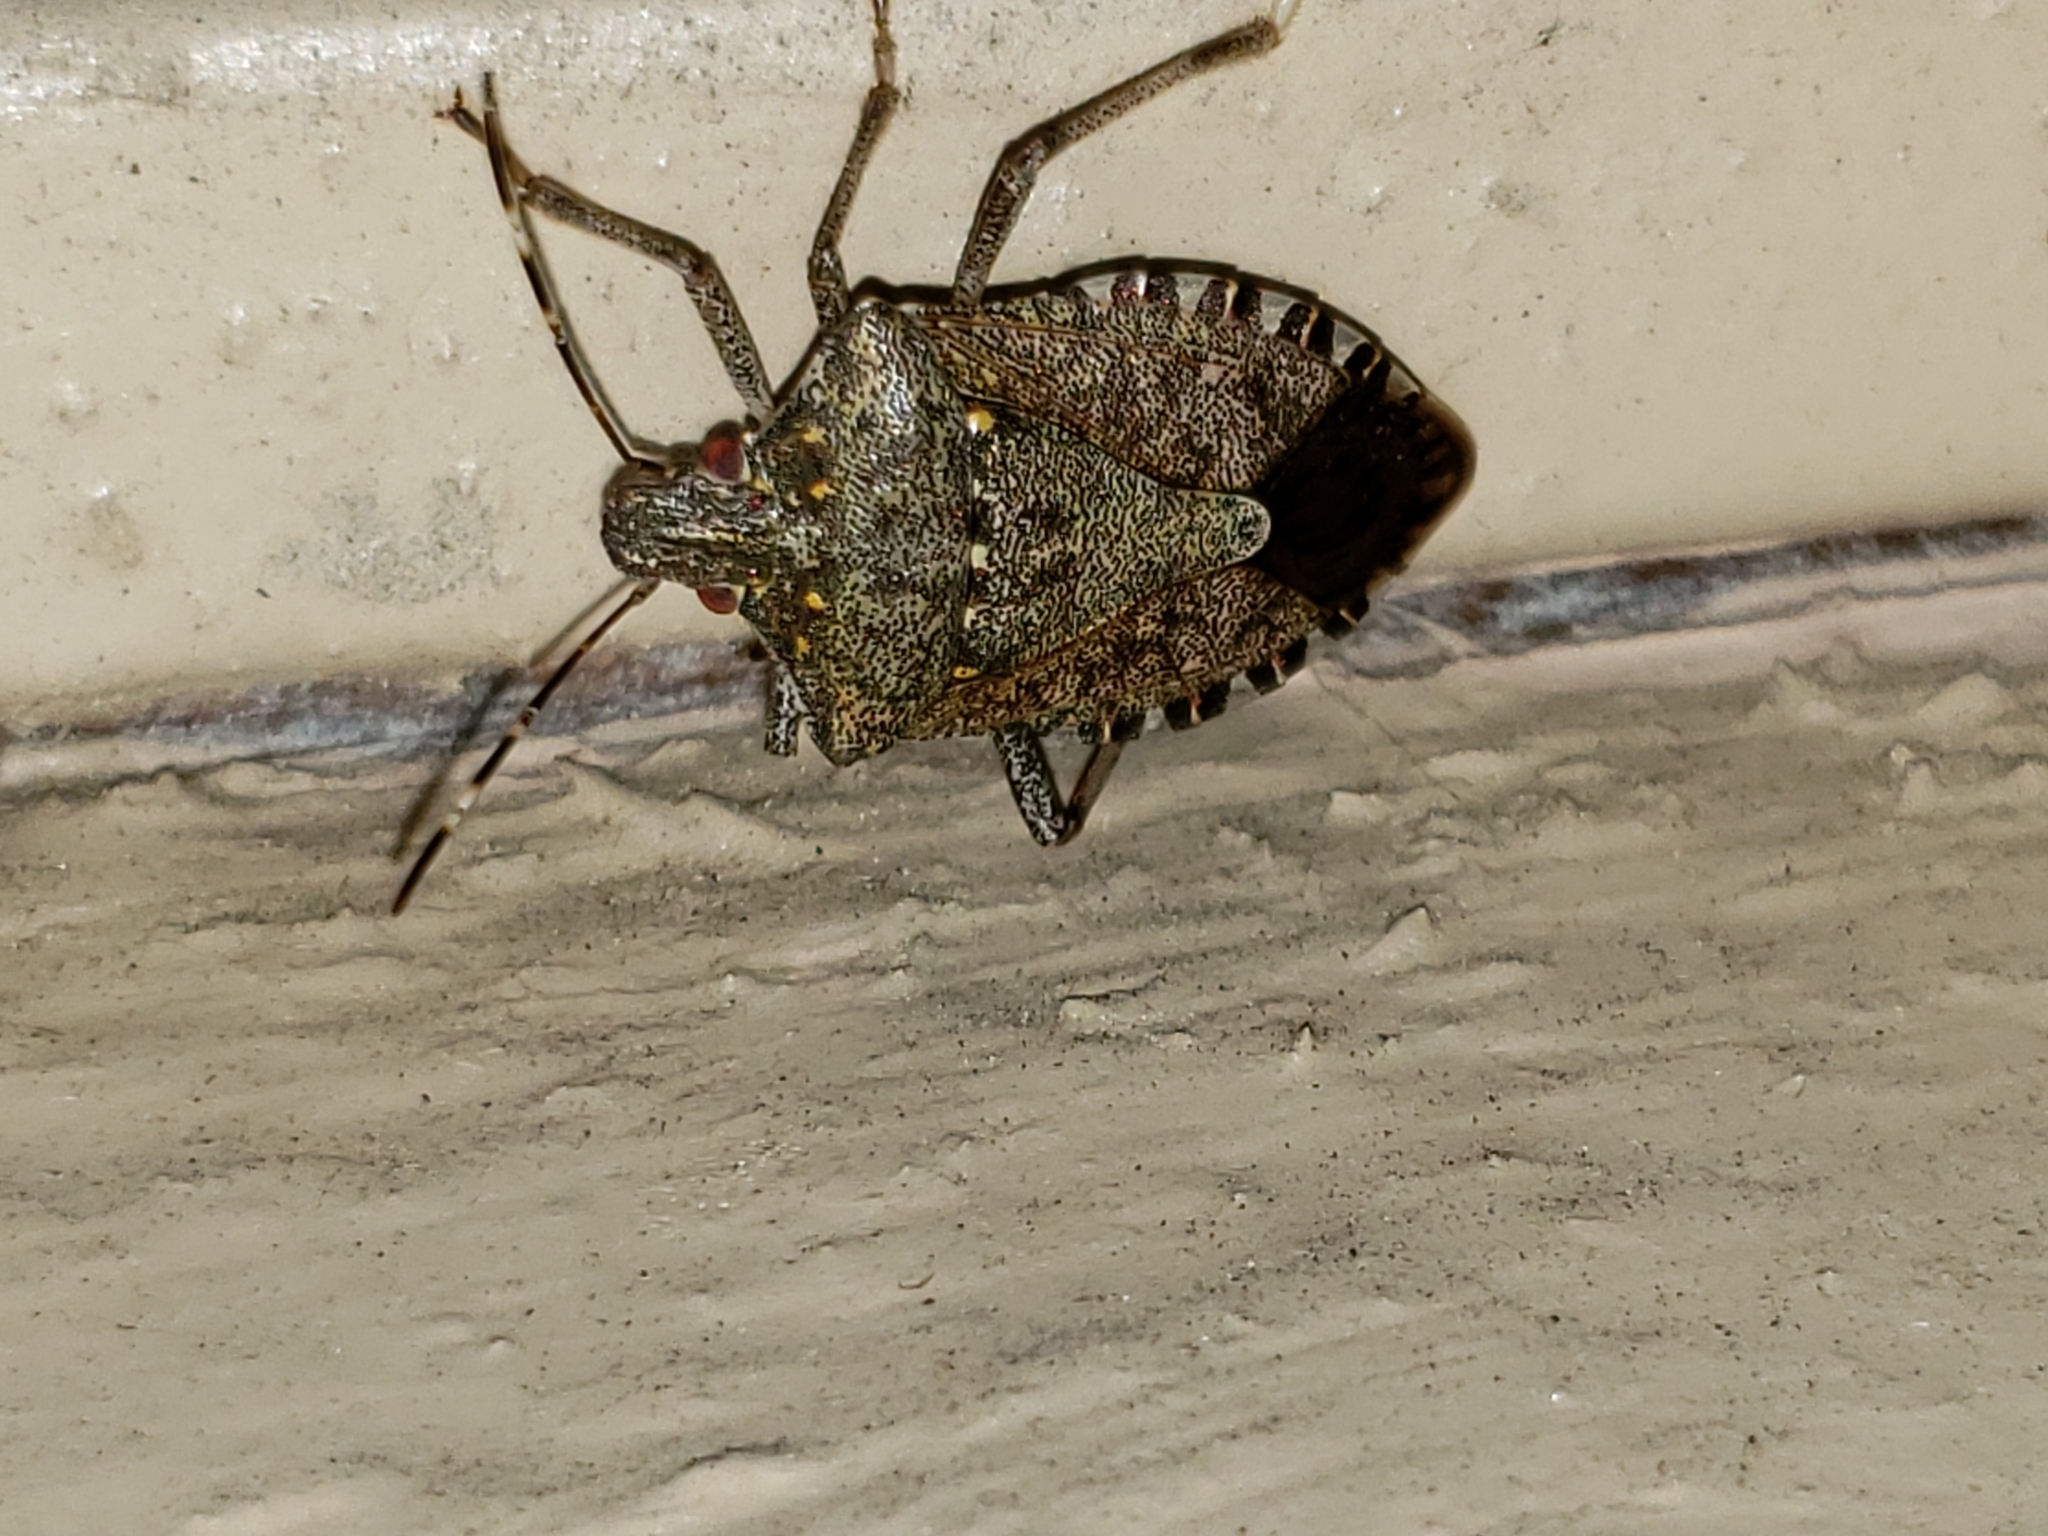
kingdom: Animalia
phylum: Arthropoda
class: Insecta
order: Hemiptera
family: Pentatomidae
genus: Halyomorpha
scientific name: Halyomorpha halys
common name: Brown marmorated stink bug
